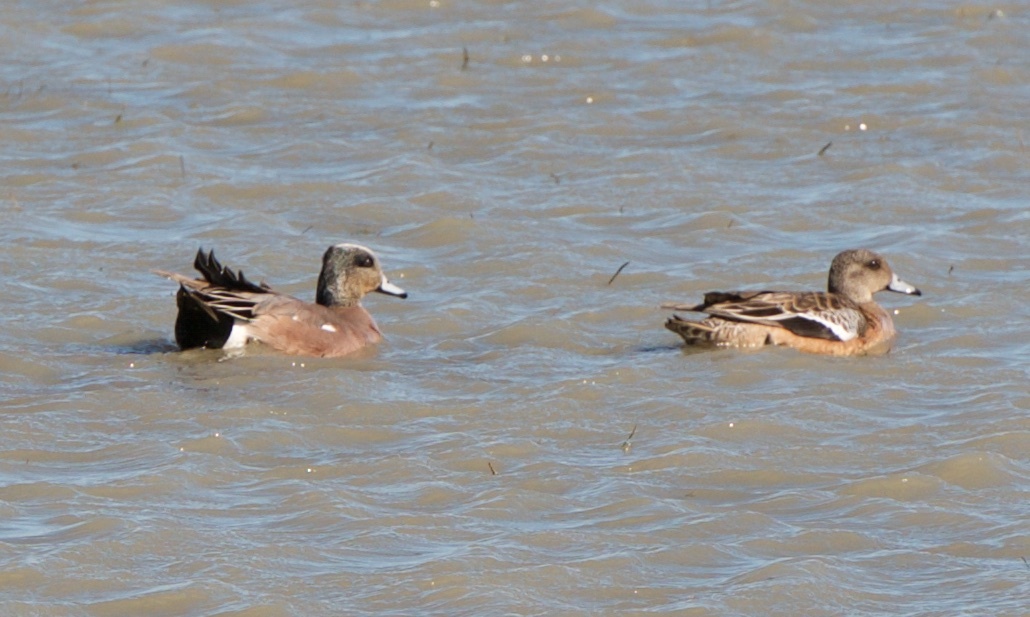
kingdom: Animalia
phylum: Chordata
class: Aves
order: Anseriformes
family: Anatidae
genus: Mareca
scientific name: Mareca americana
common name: American wigeon
